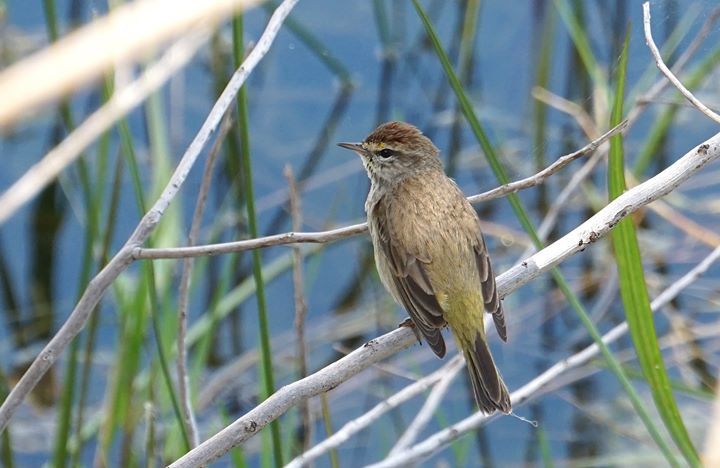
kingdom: Animalia
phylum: Chordata
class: Aves
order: Passeriformes
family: Parulidae
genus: Setophaga
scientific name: Setophaga palmarum
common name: Palm warbler
